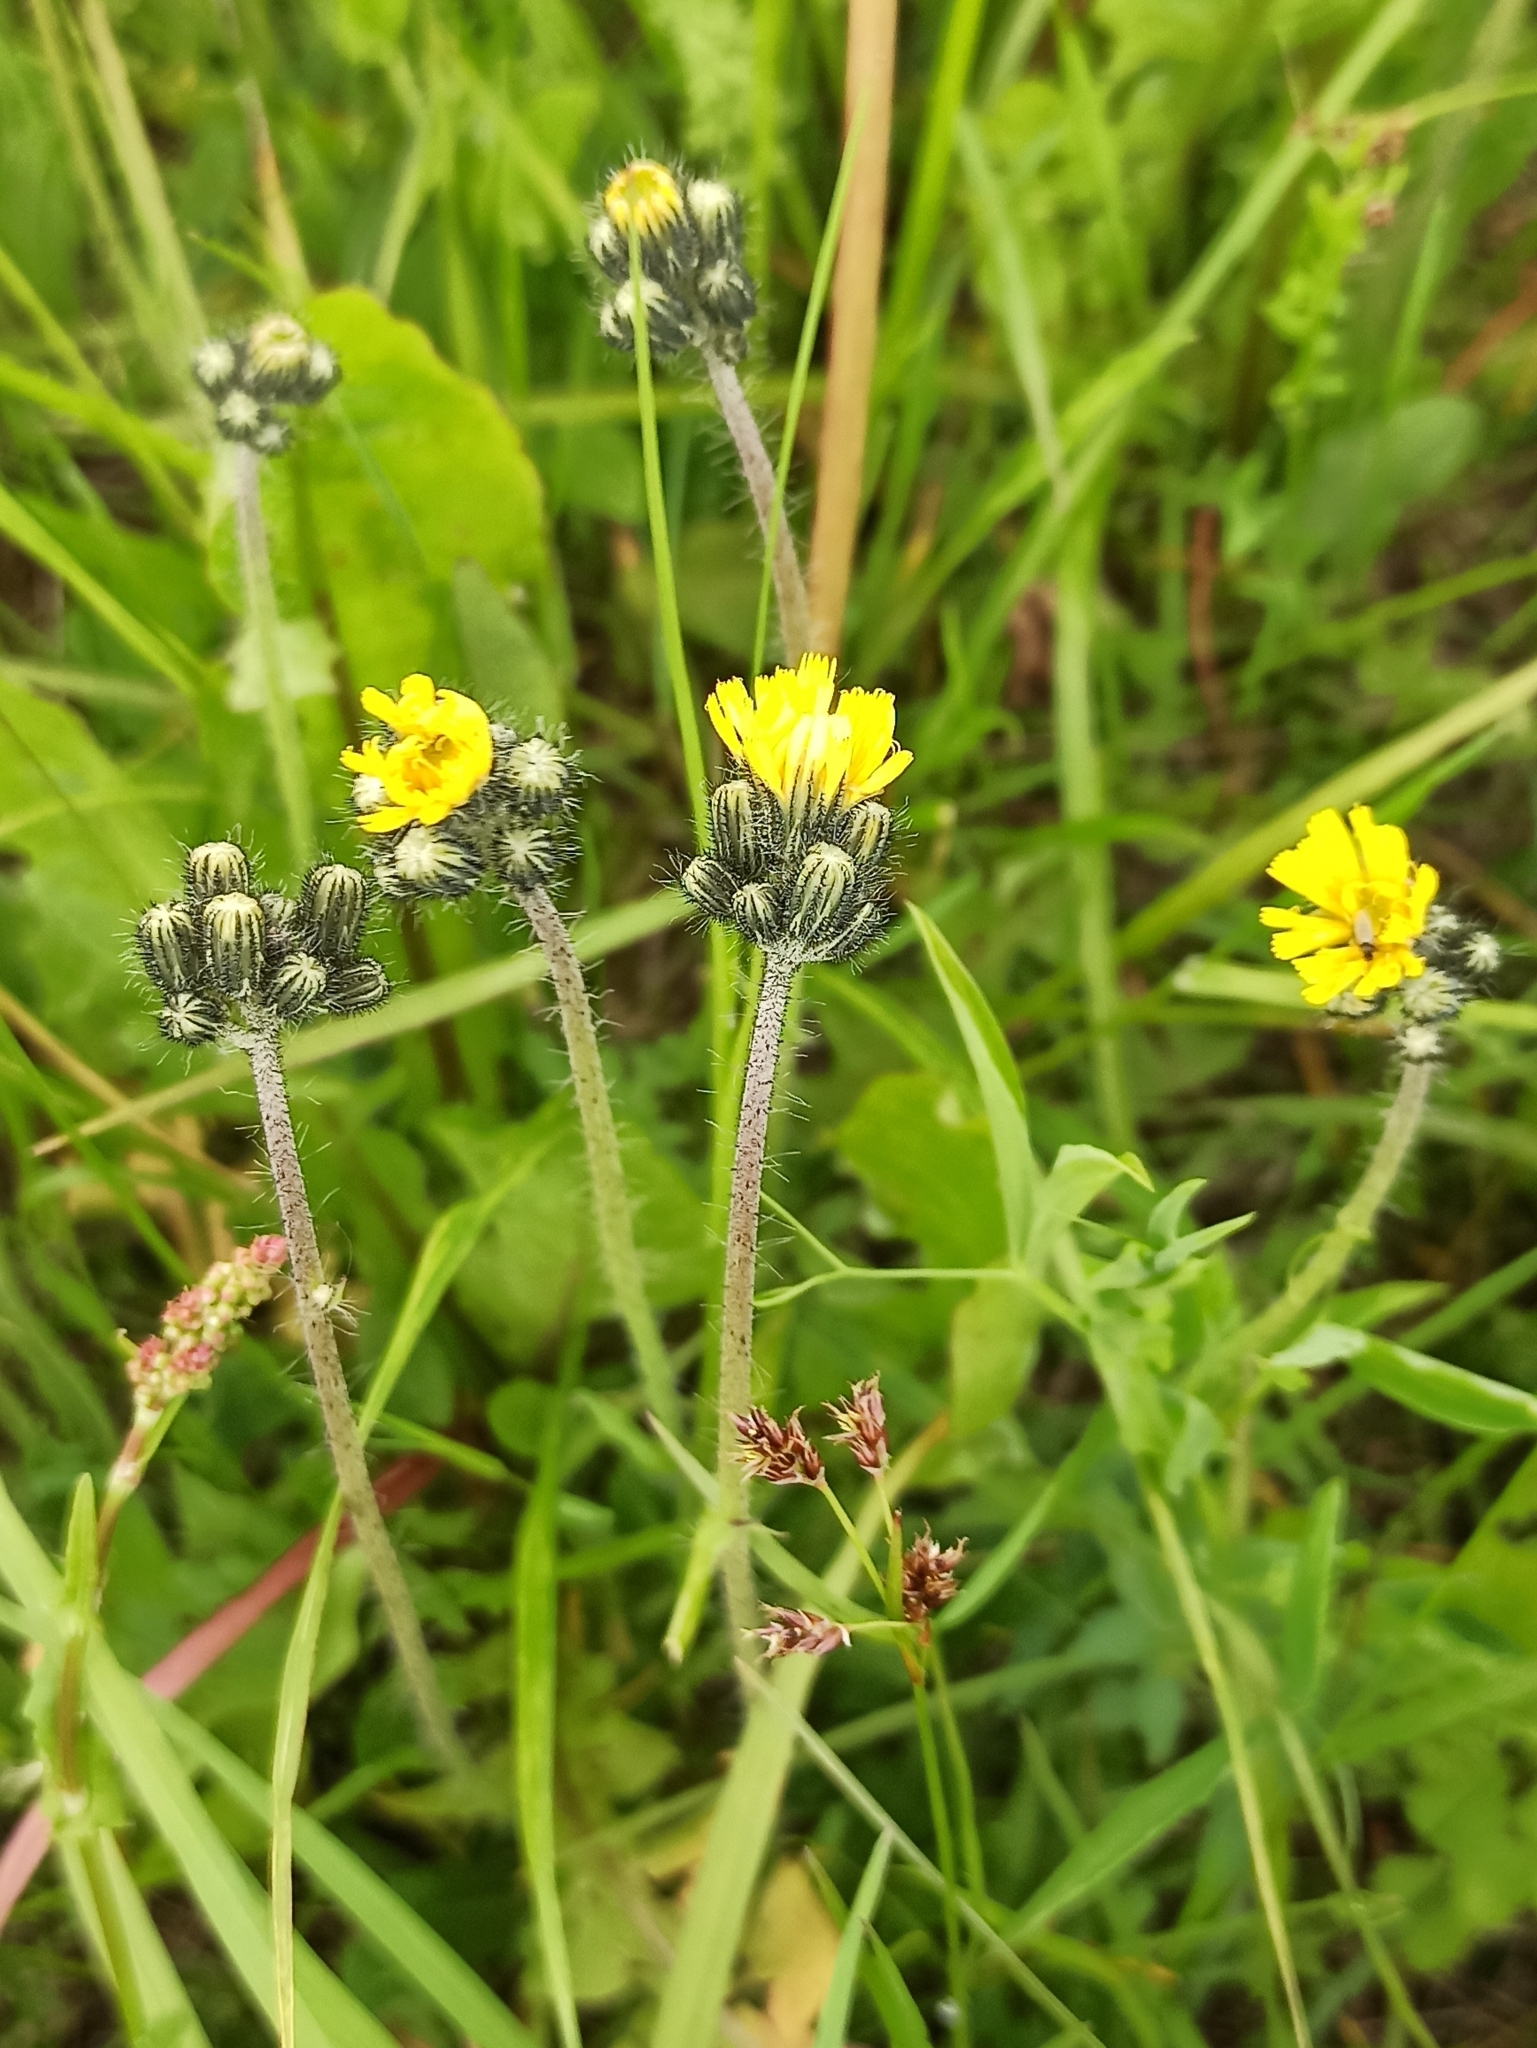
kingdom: Plantae
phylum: Tracheophyta
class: Magnoliopsida
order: Asterales
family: Asteraceae
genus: Pilosella
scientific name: Pilosella
